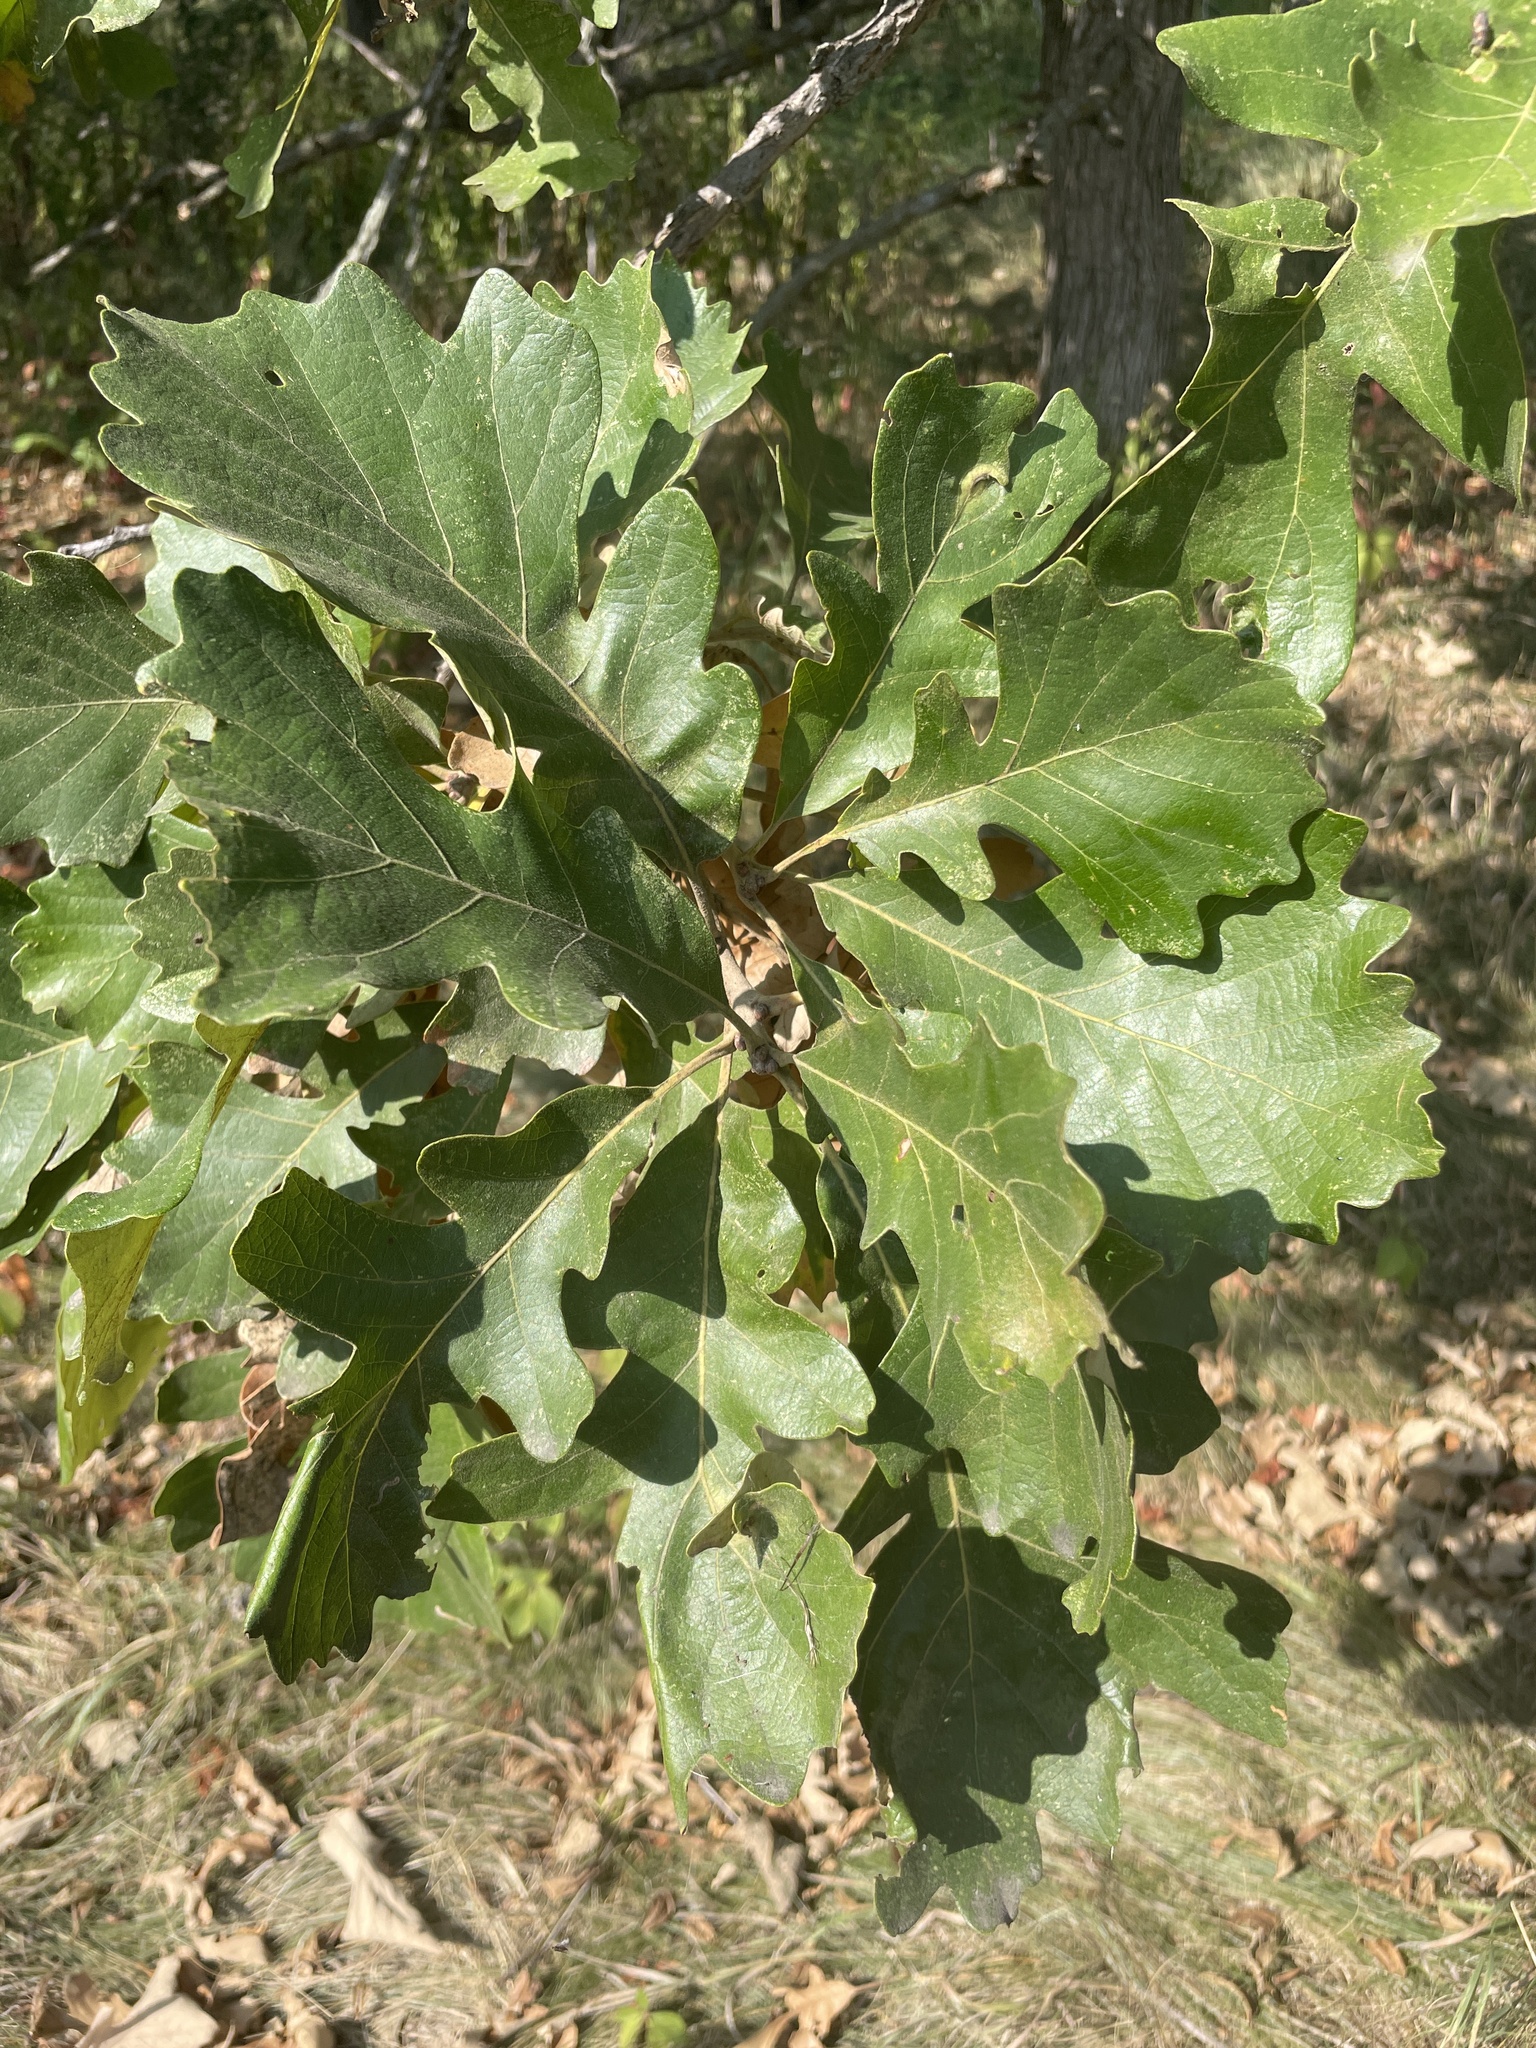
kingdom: Plantae
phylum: Tracheophyta
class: Magnoliopsida
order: Fagales
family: Fagaceae
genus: Quercus
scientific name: Quercus macrocarpa
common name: Bur oak
